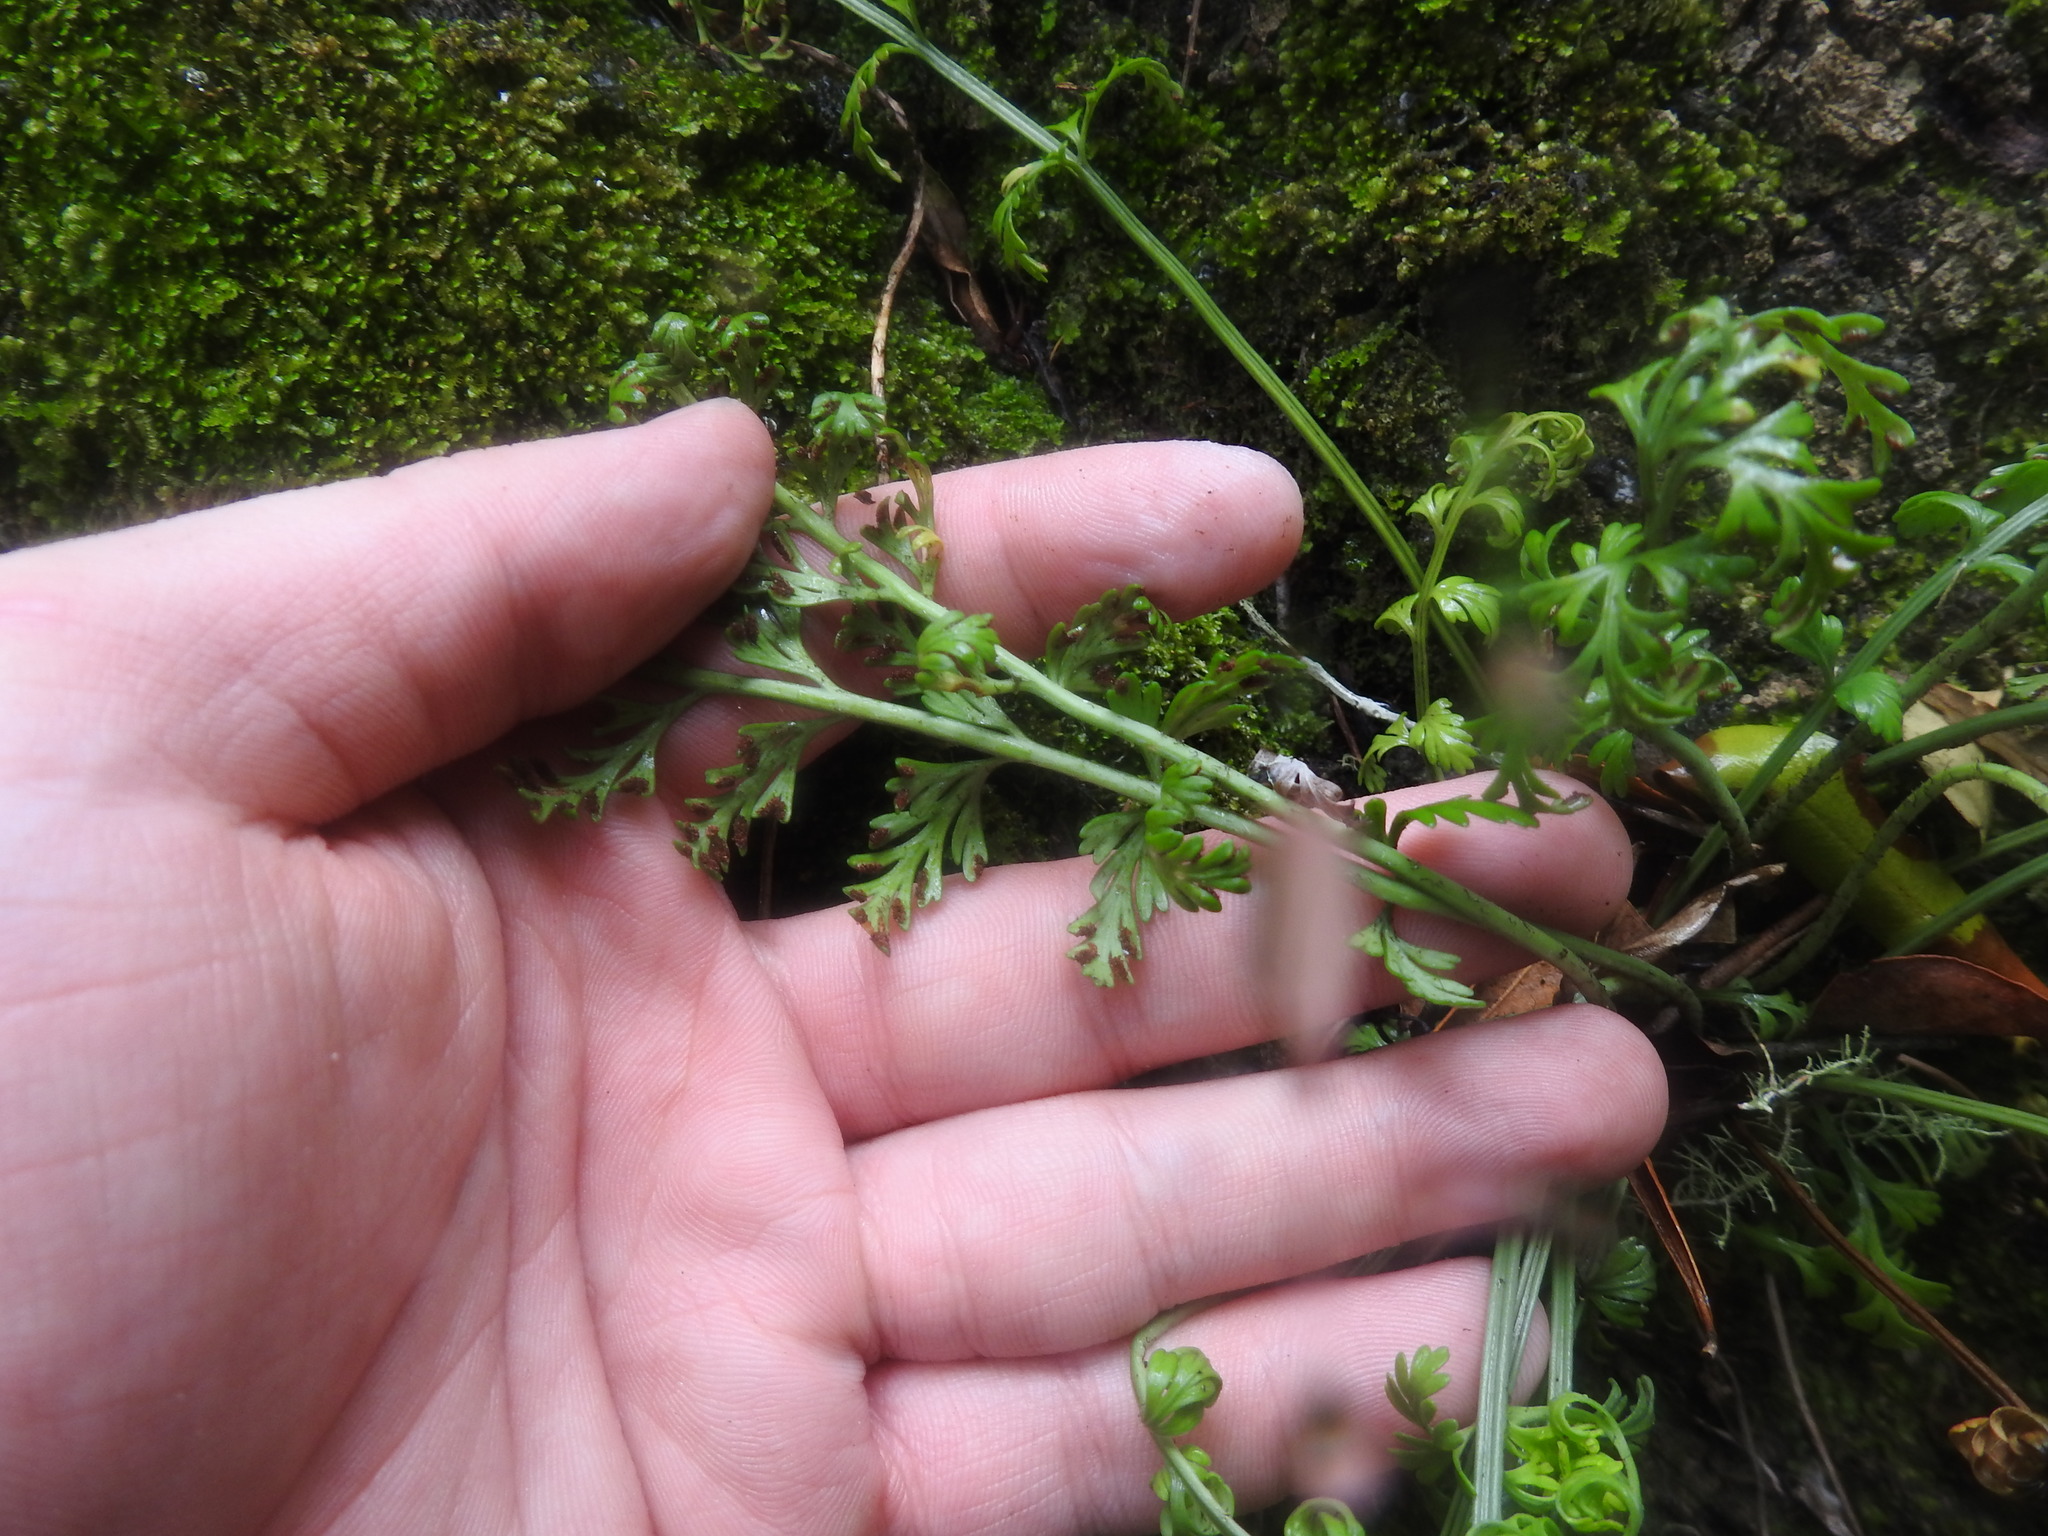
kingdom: Plantae
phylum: Tracheophyta
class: Polypodiopsida
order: Polypodiales
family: Aspleniaceae
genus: Asplenium
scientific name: Asplenium rutifolium
